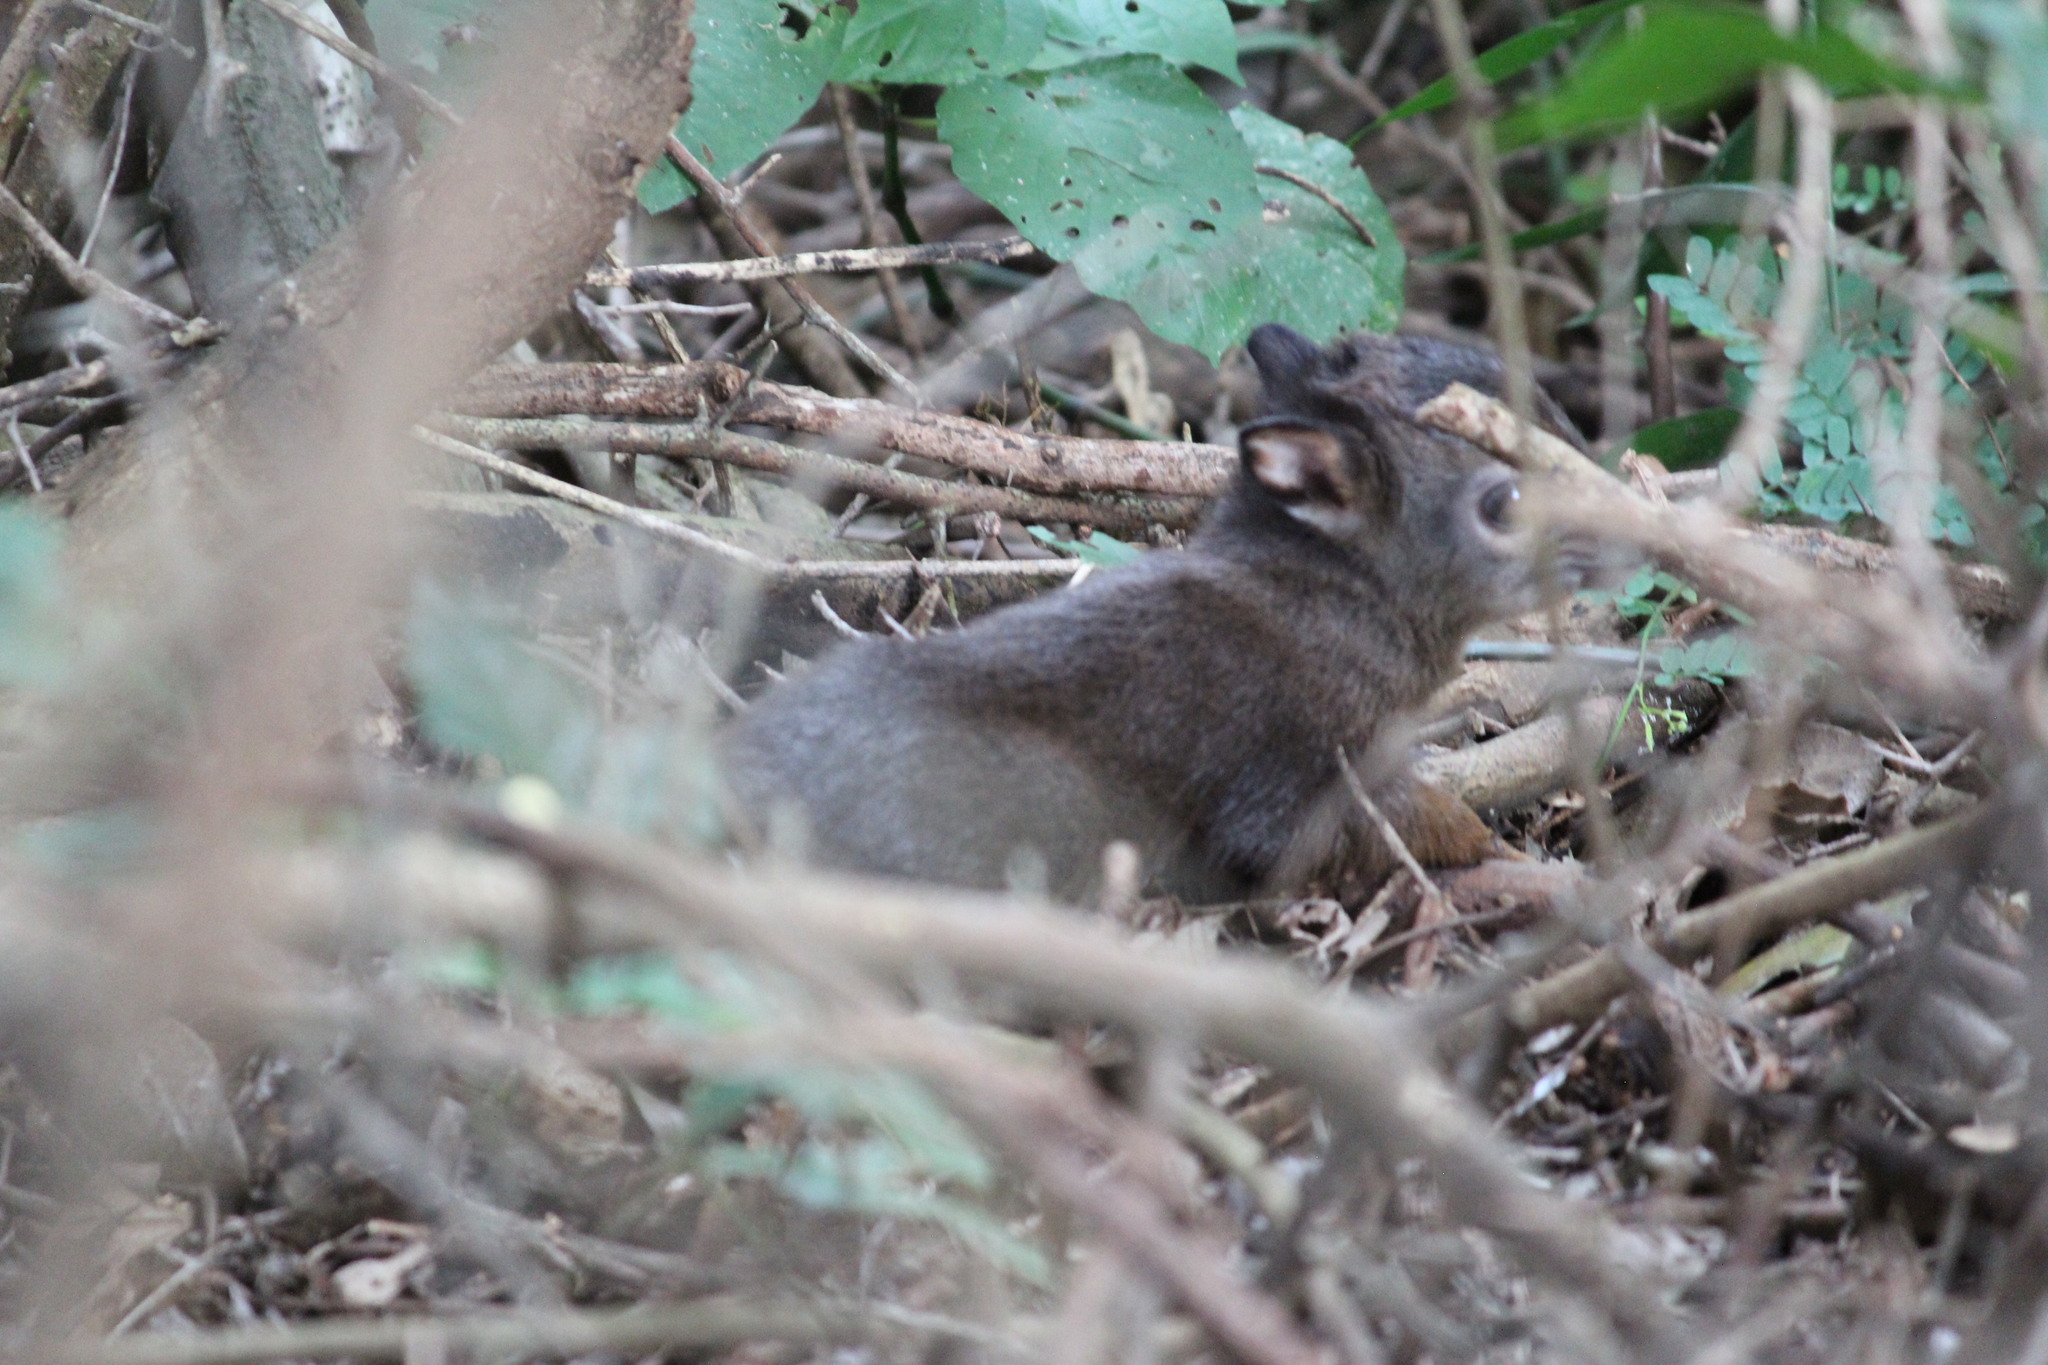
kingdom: Animalia
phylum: Chordata
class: Mammalia
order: Artiodactyla
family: Bovidae
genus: Philantomba
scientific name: Philantomba monticola
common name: Blue duiker
